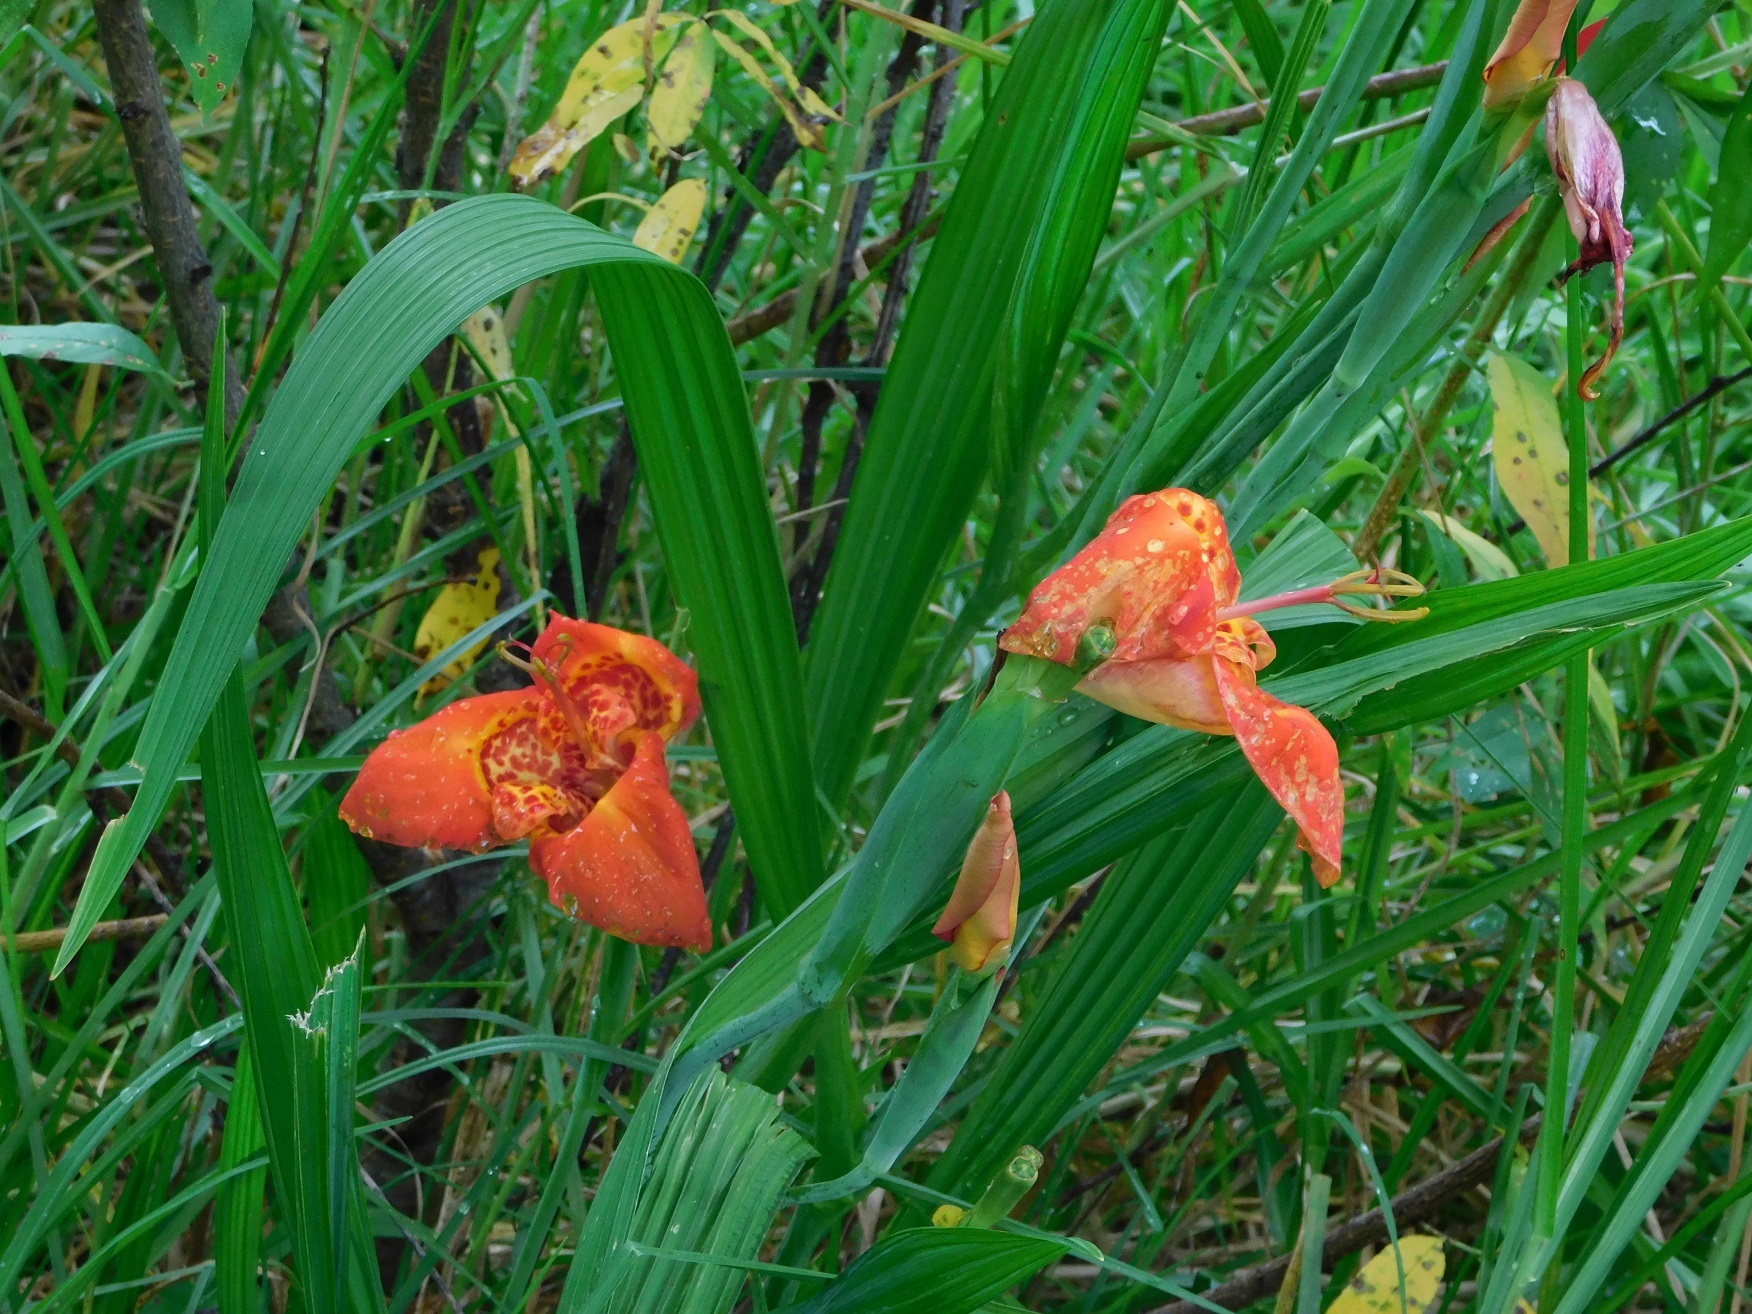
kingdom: Plantae
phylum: Tracheophyta
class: Liliopsida
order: Asparagales
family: Iridaceae
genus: Tigridia
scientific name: Tigridia pavonia
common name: Peacock-flower
